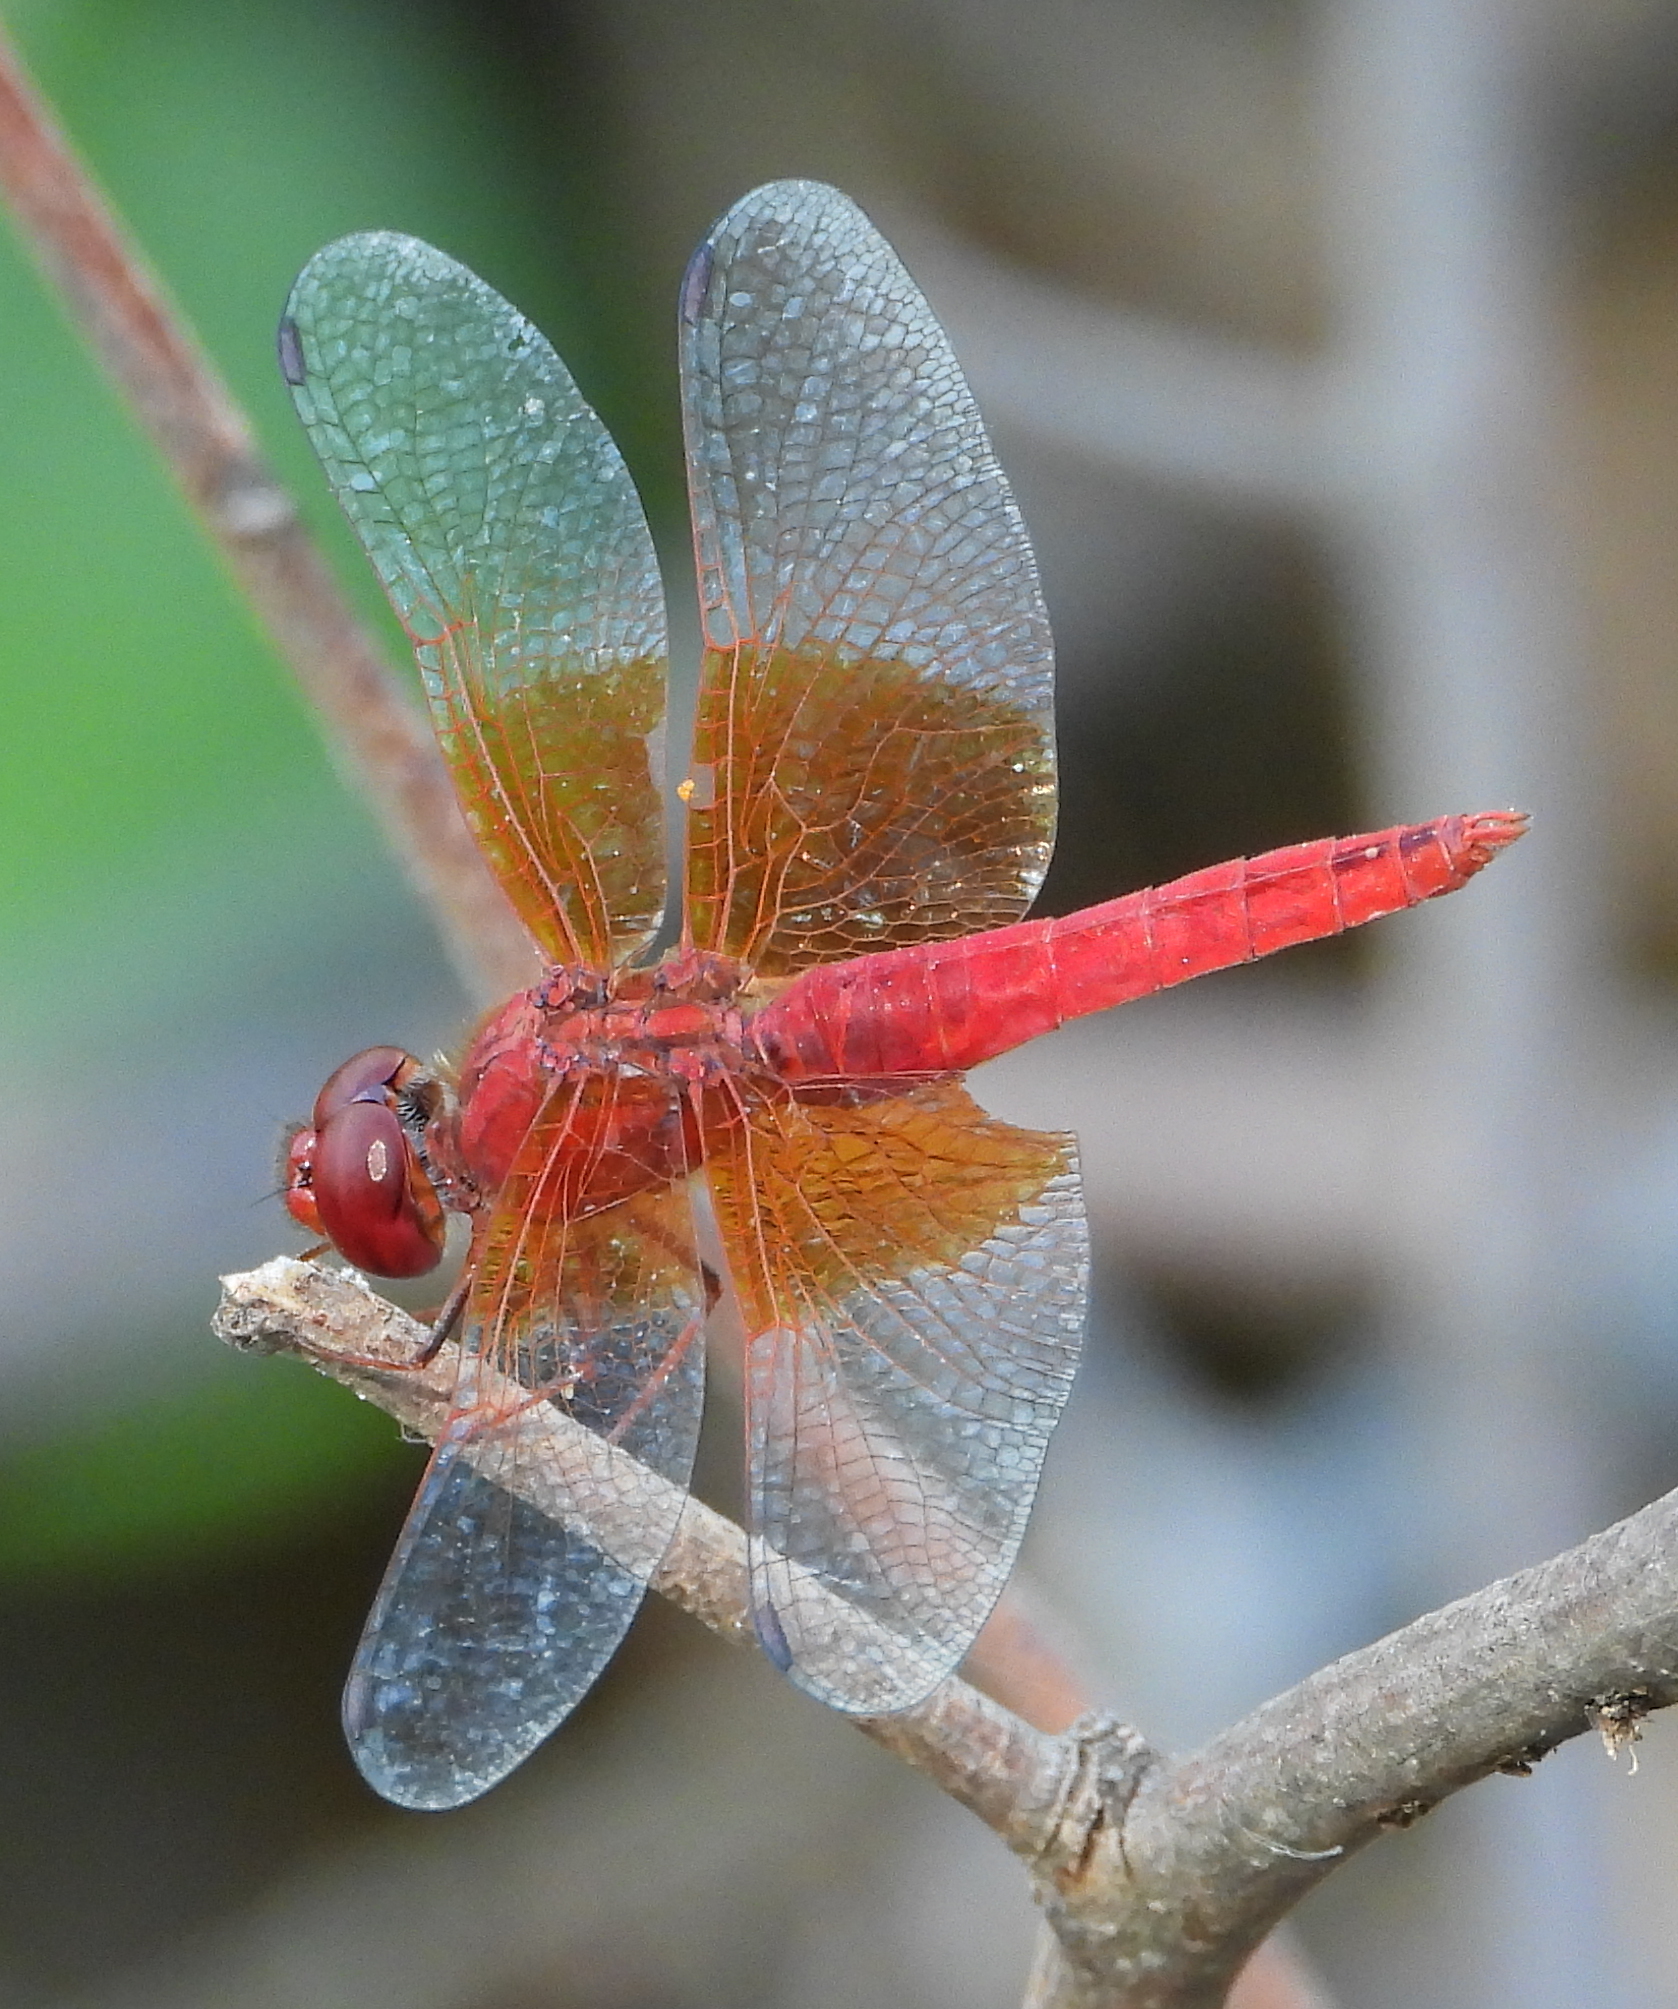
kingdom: Animalia
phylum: Arthropoda
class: Insecta
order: Odonata
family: Libellulidae
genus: Brachythemis
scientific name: Brachythemis lacustris
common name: Red groundling
